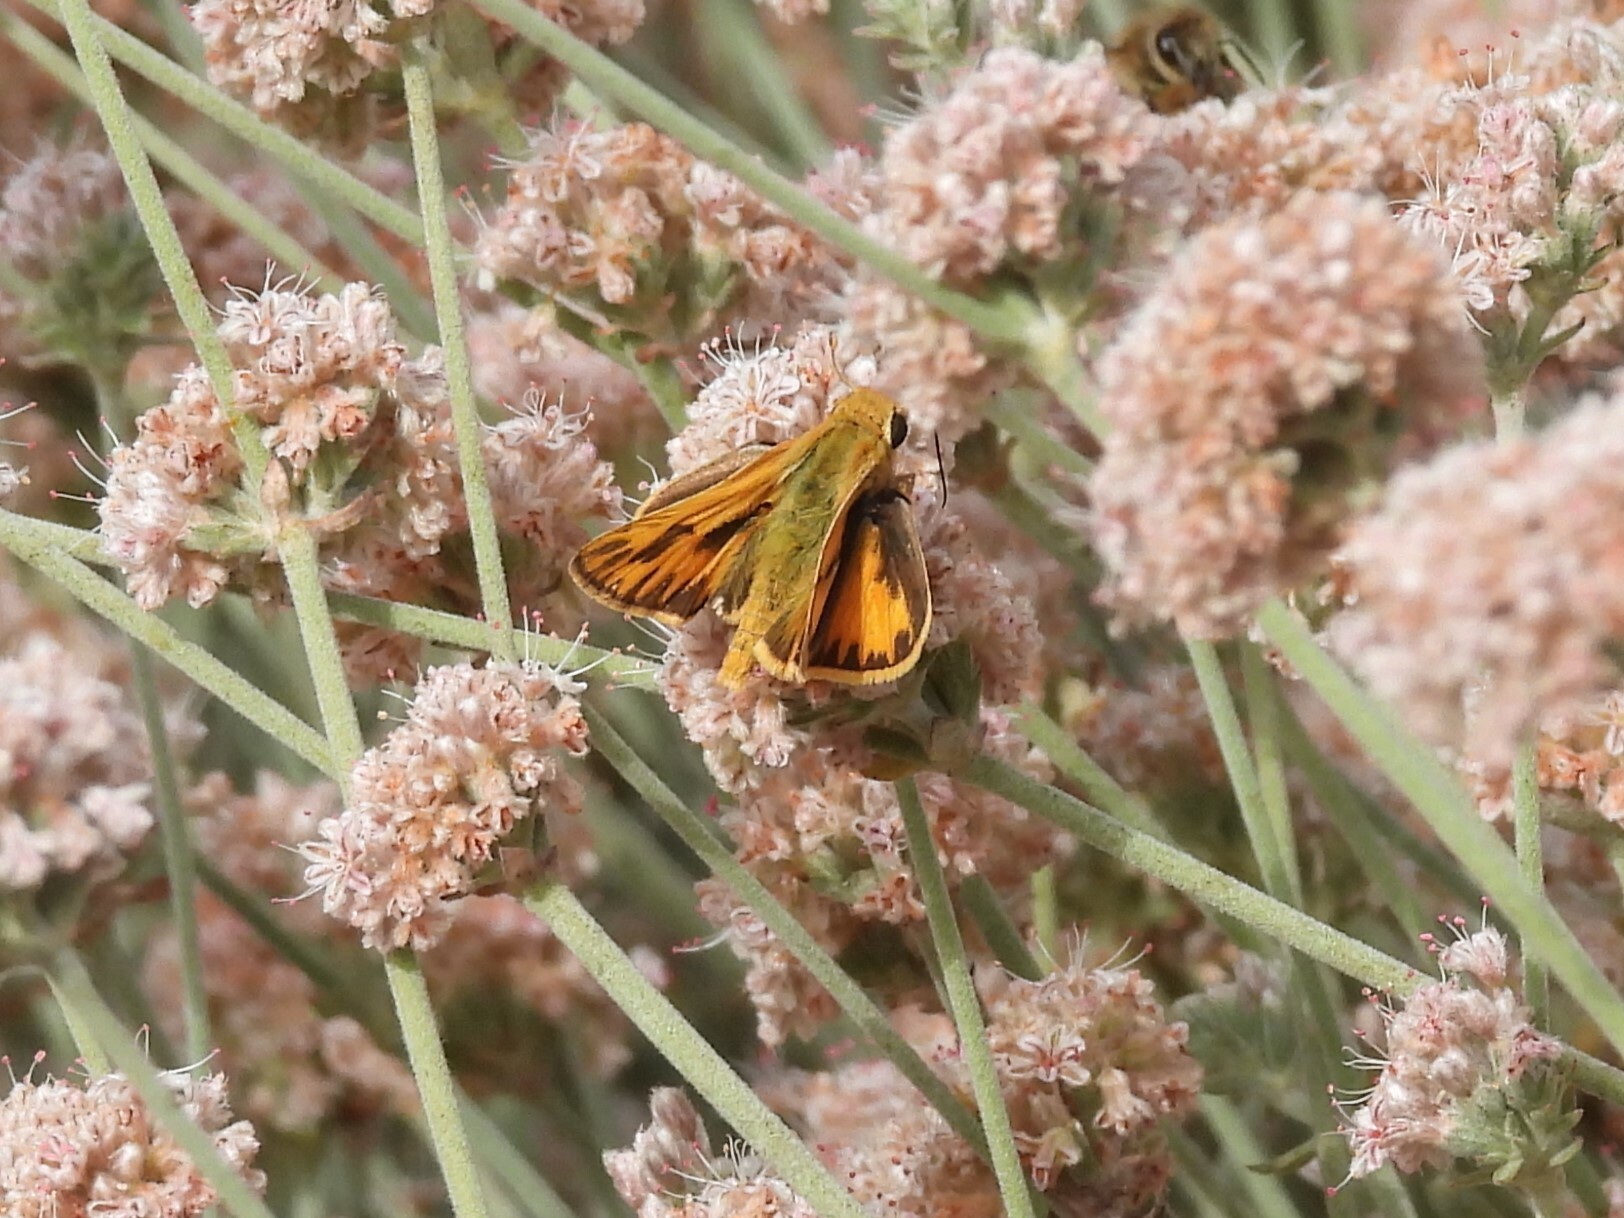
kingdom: Animalia
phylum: Arthropoda
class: Insecta
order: Lepidoptera
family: Hesperiidae
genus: Hylephila
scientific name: Hylephila phyleus
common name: Fiery skipper
